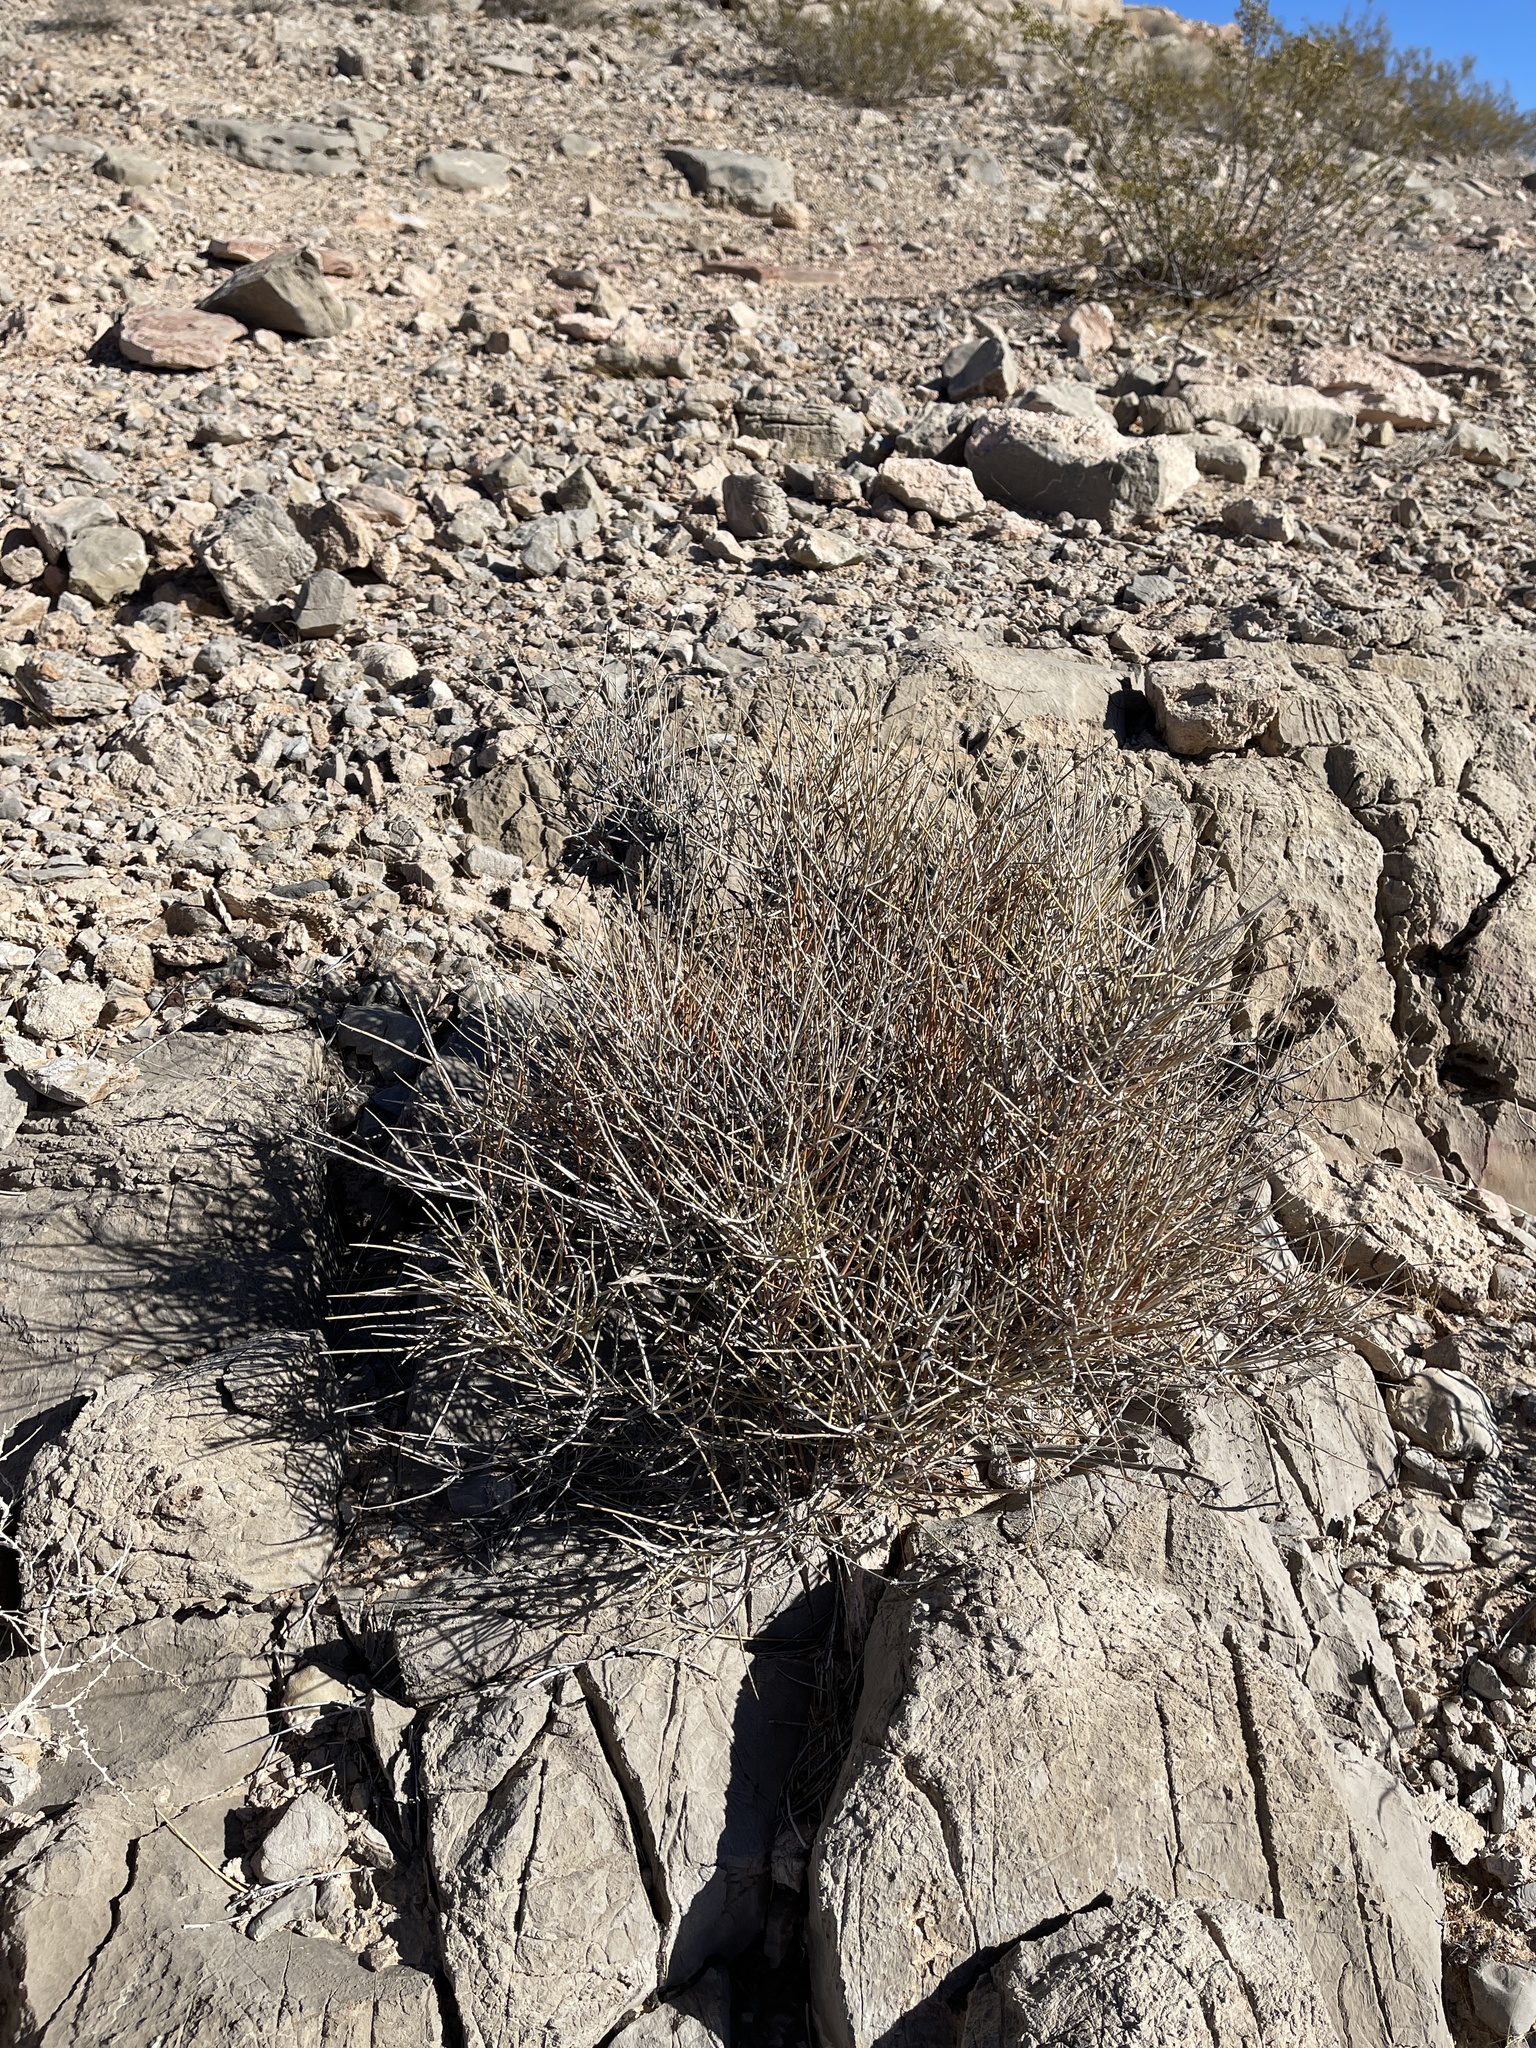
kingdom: Plantae
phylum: Tracheophyta
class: Gnetopsida
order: Ephedrales
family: Ephedraceae
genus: Ephedra
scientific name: Ephedra nevadensis
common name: Gray ephedra
